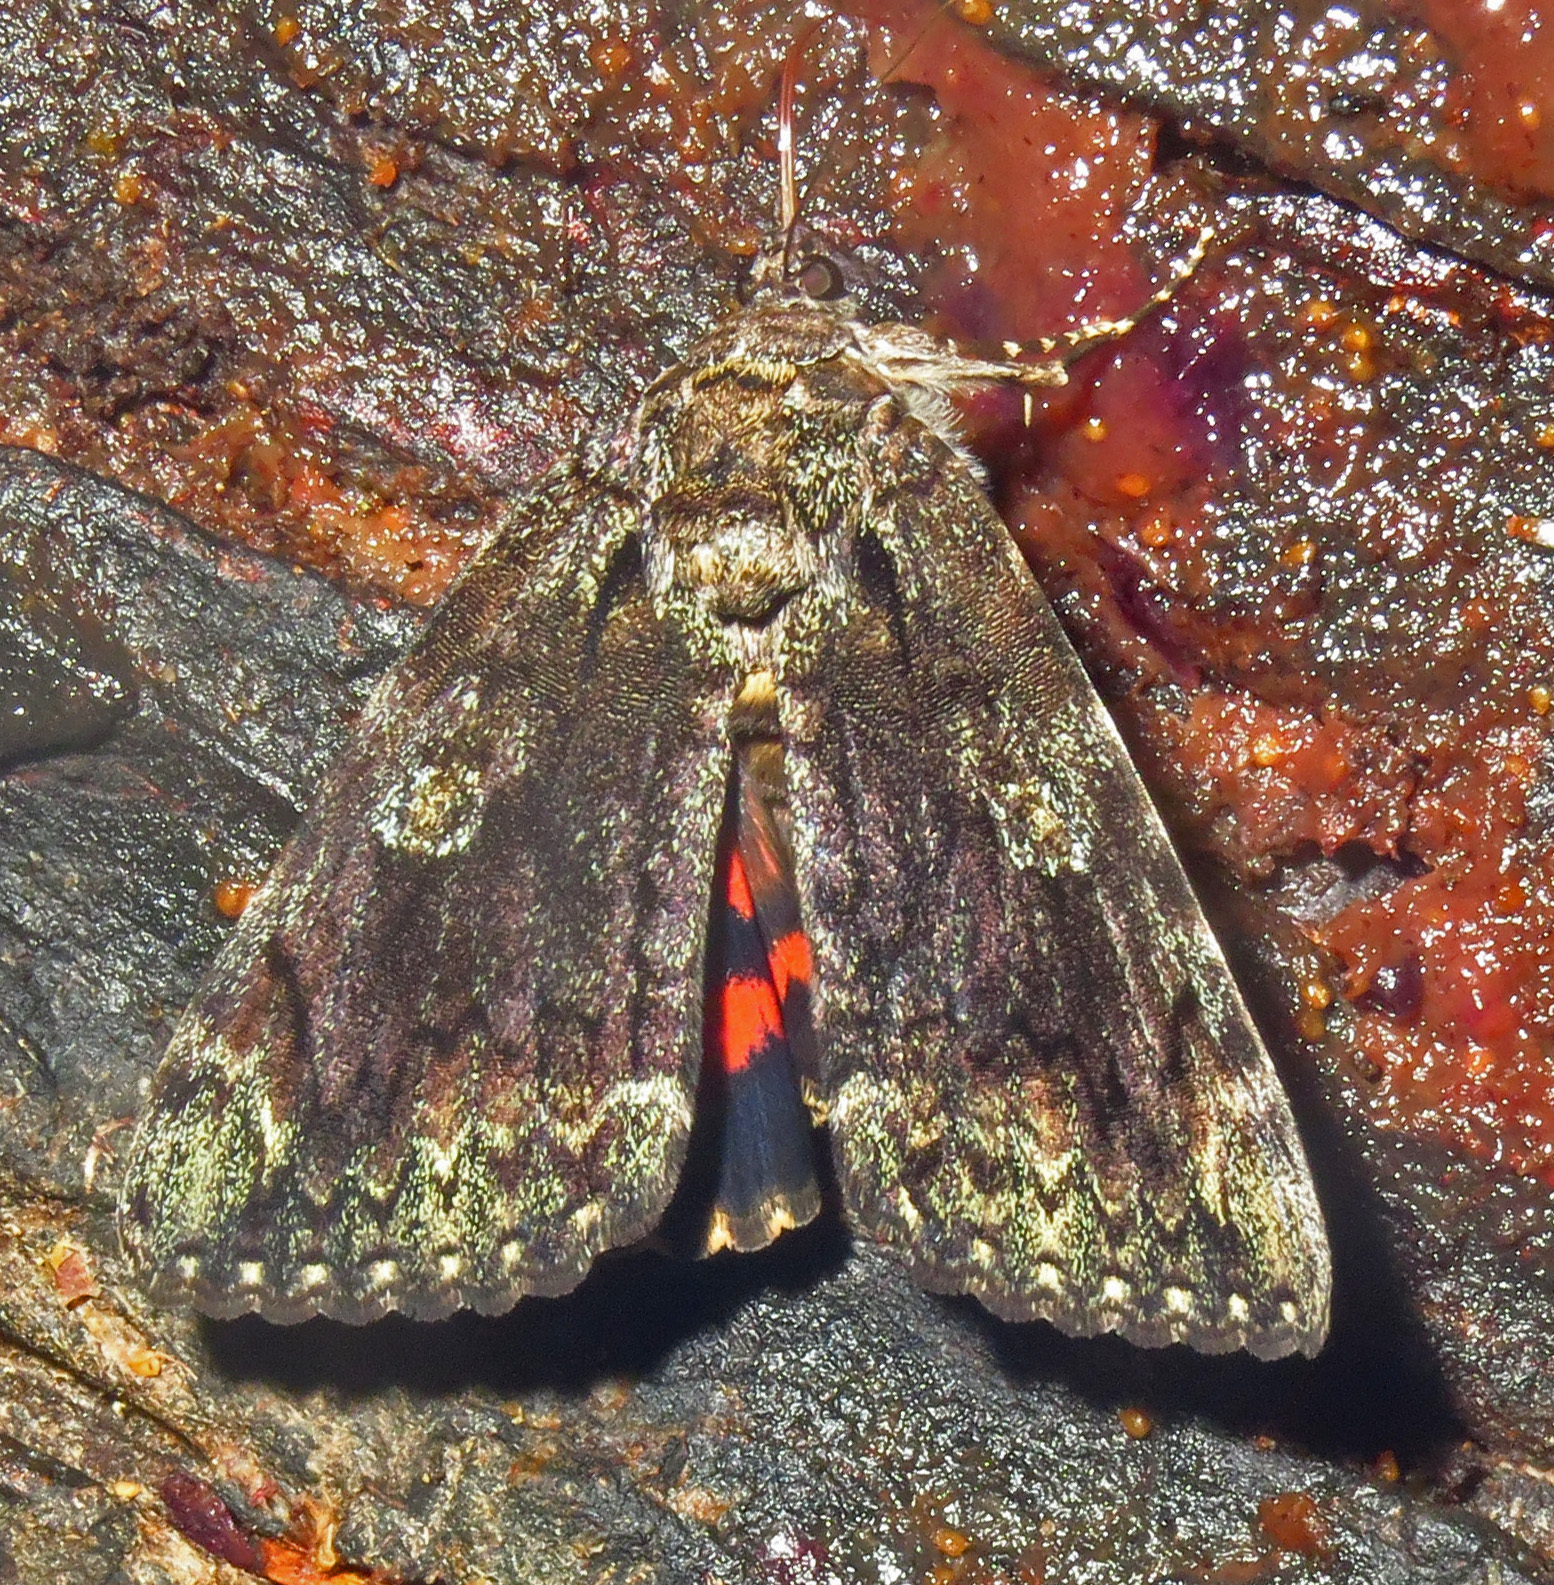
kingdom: Animalia
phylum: Arthropoda
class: Insecta
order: Lepidoptera
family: Erebidae
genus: Catocala
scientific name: Catocala ilia
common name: Ilia underwing
